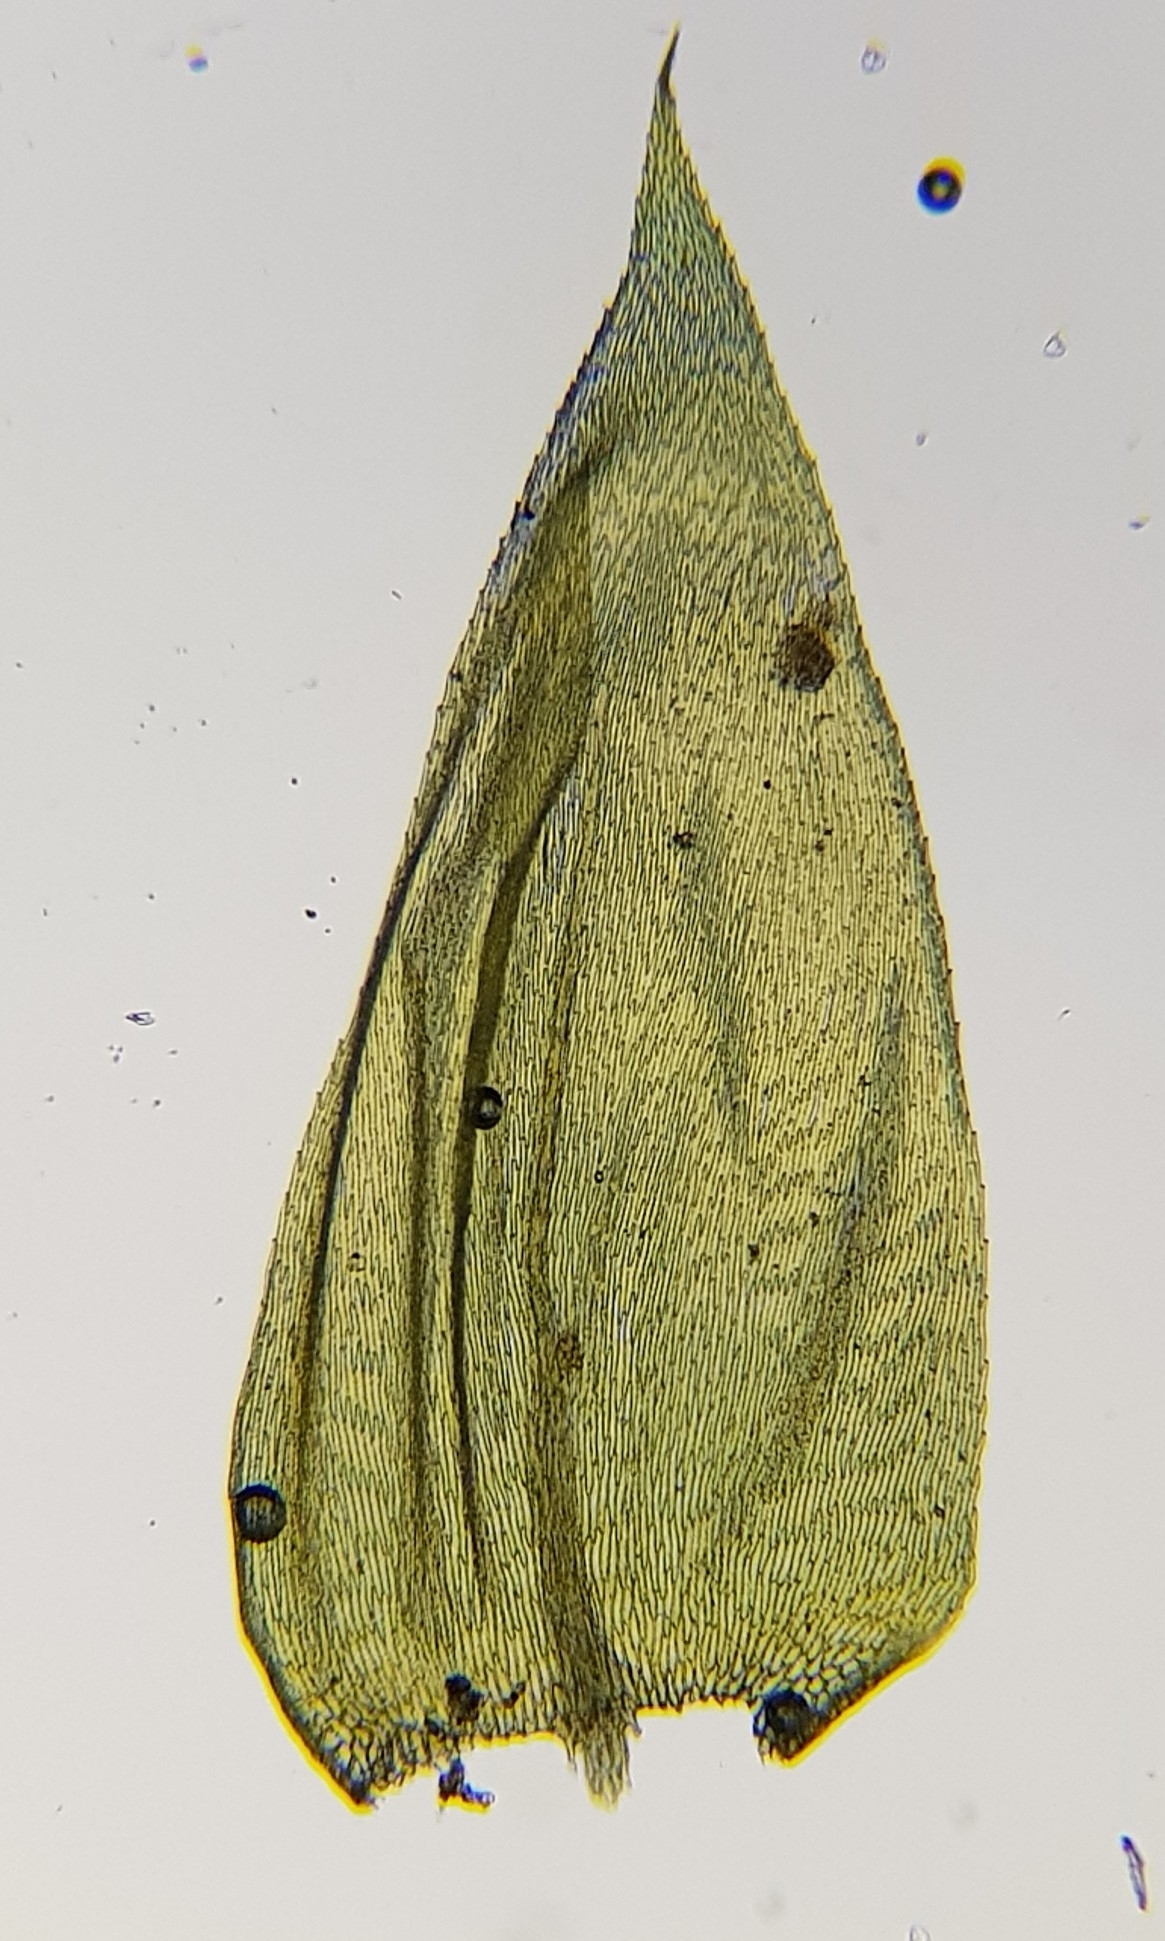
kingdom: Plantae
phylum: Bryophyta
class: Bryopsida
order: Hypnales
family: Brachytheciaceae
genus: Brachythecium
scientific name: Brachythecium rutabulum
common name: Rough-stalked feather-moss
